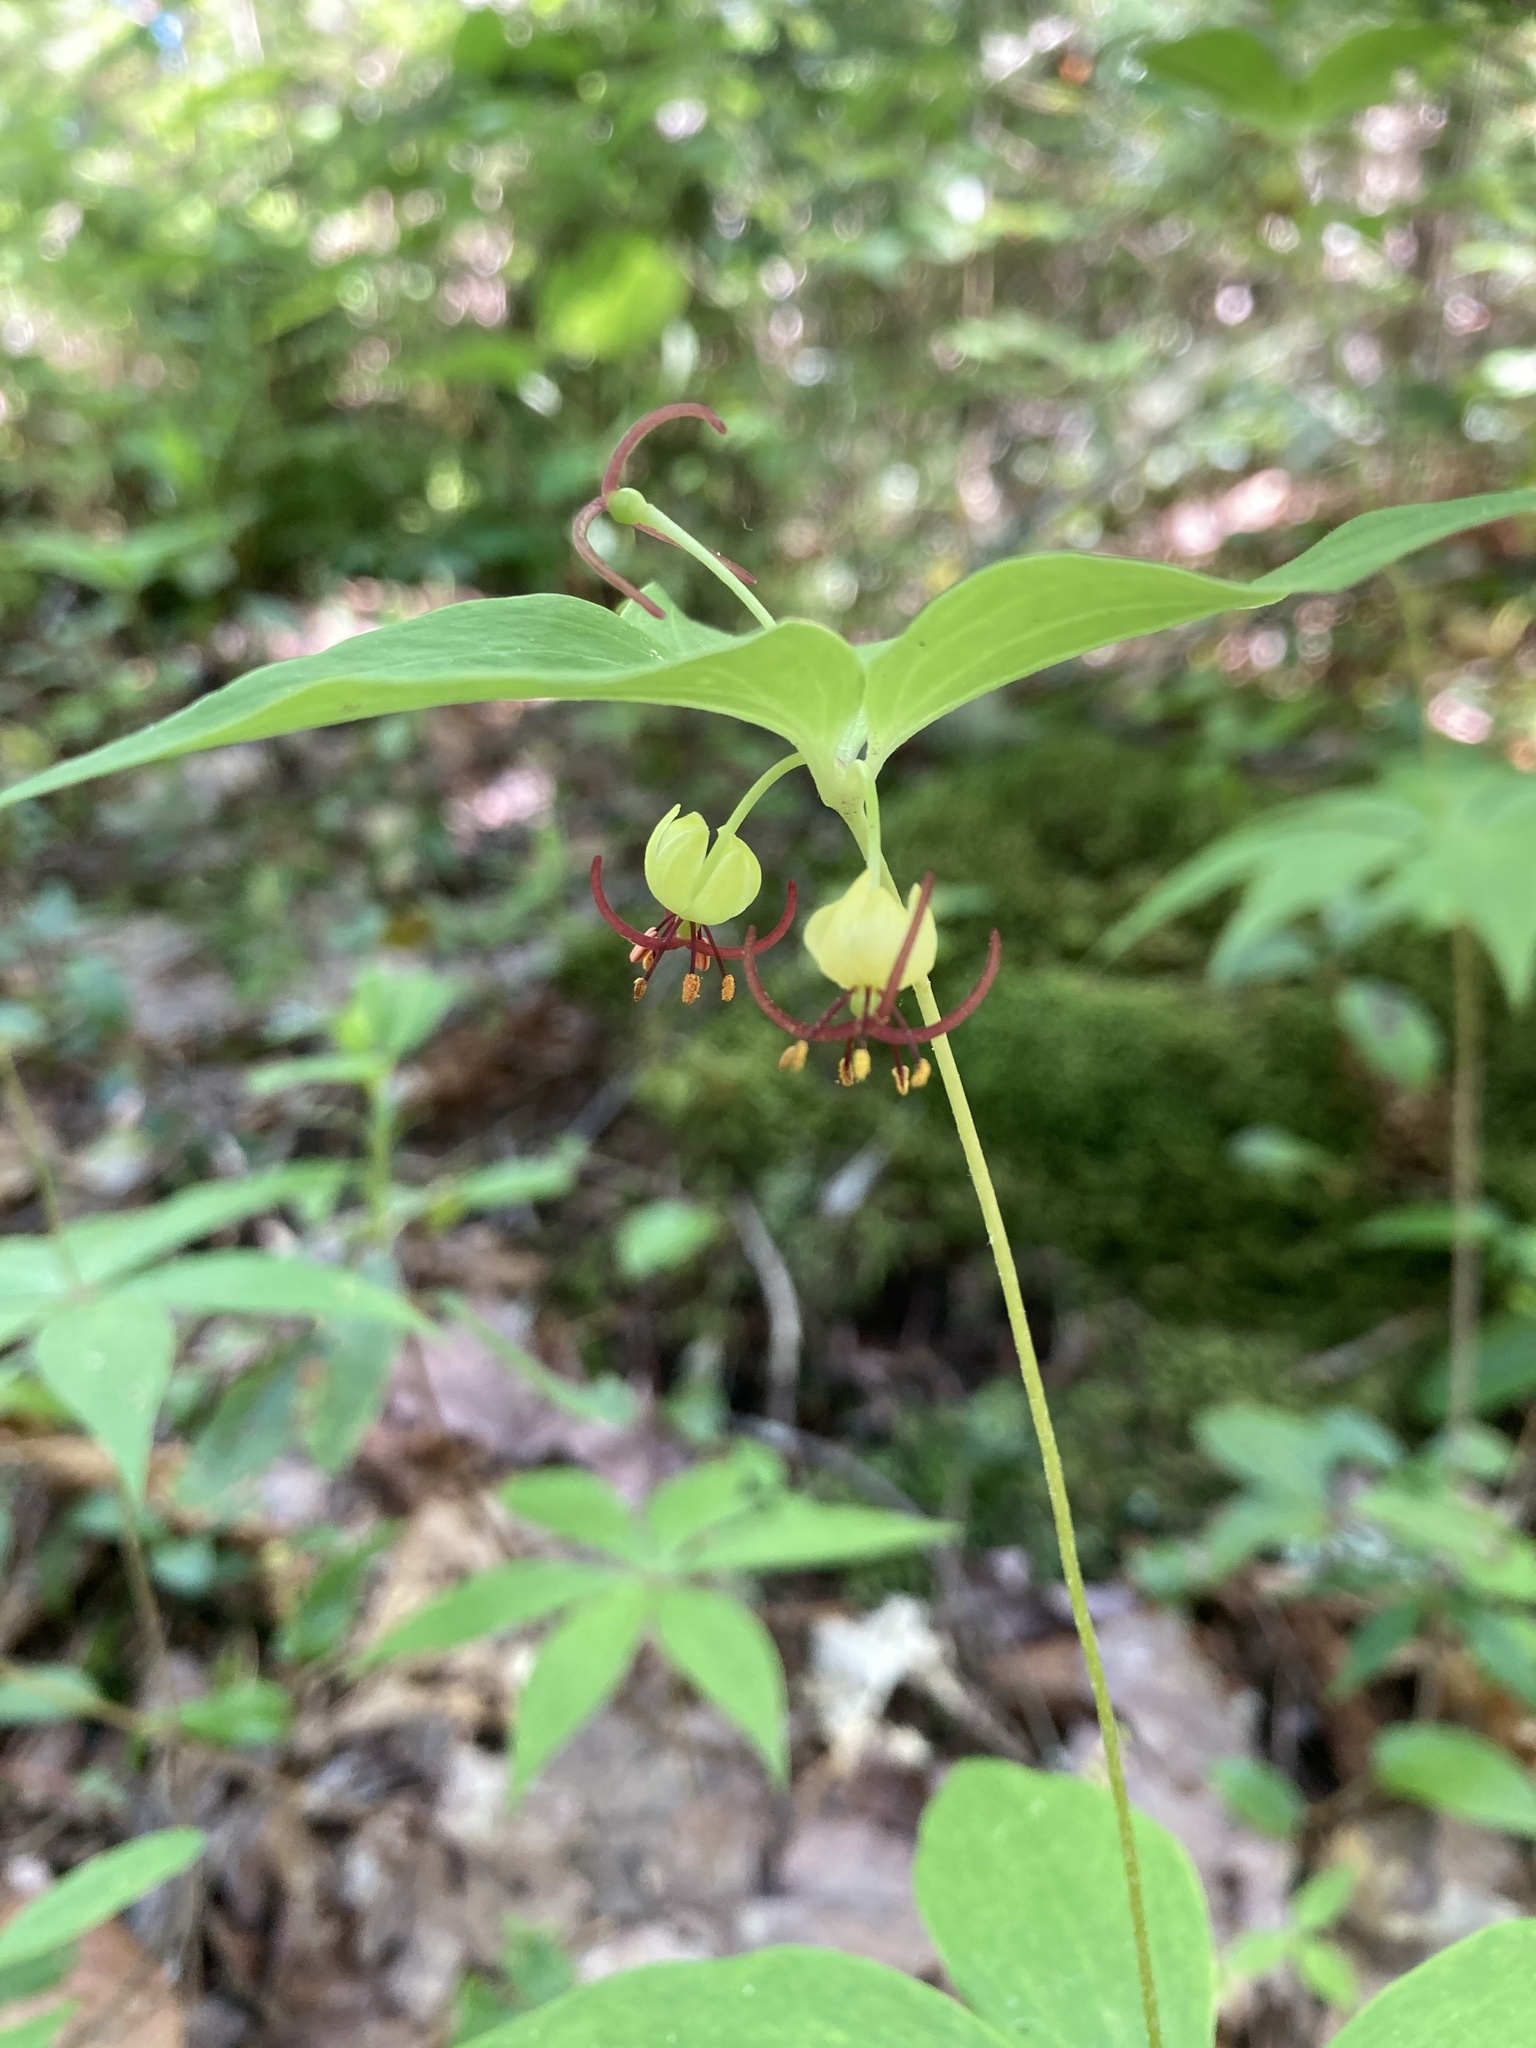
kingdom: Plantae
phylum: Tracheophyta
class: Liliopsida
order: Liliales
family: Liliaceae
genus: Medeola
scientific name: Medeola virginiana
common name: Indian cucumber-root
